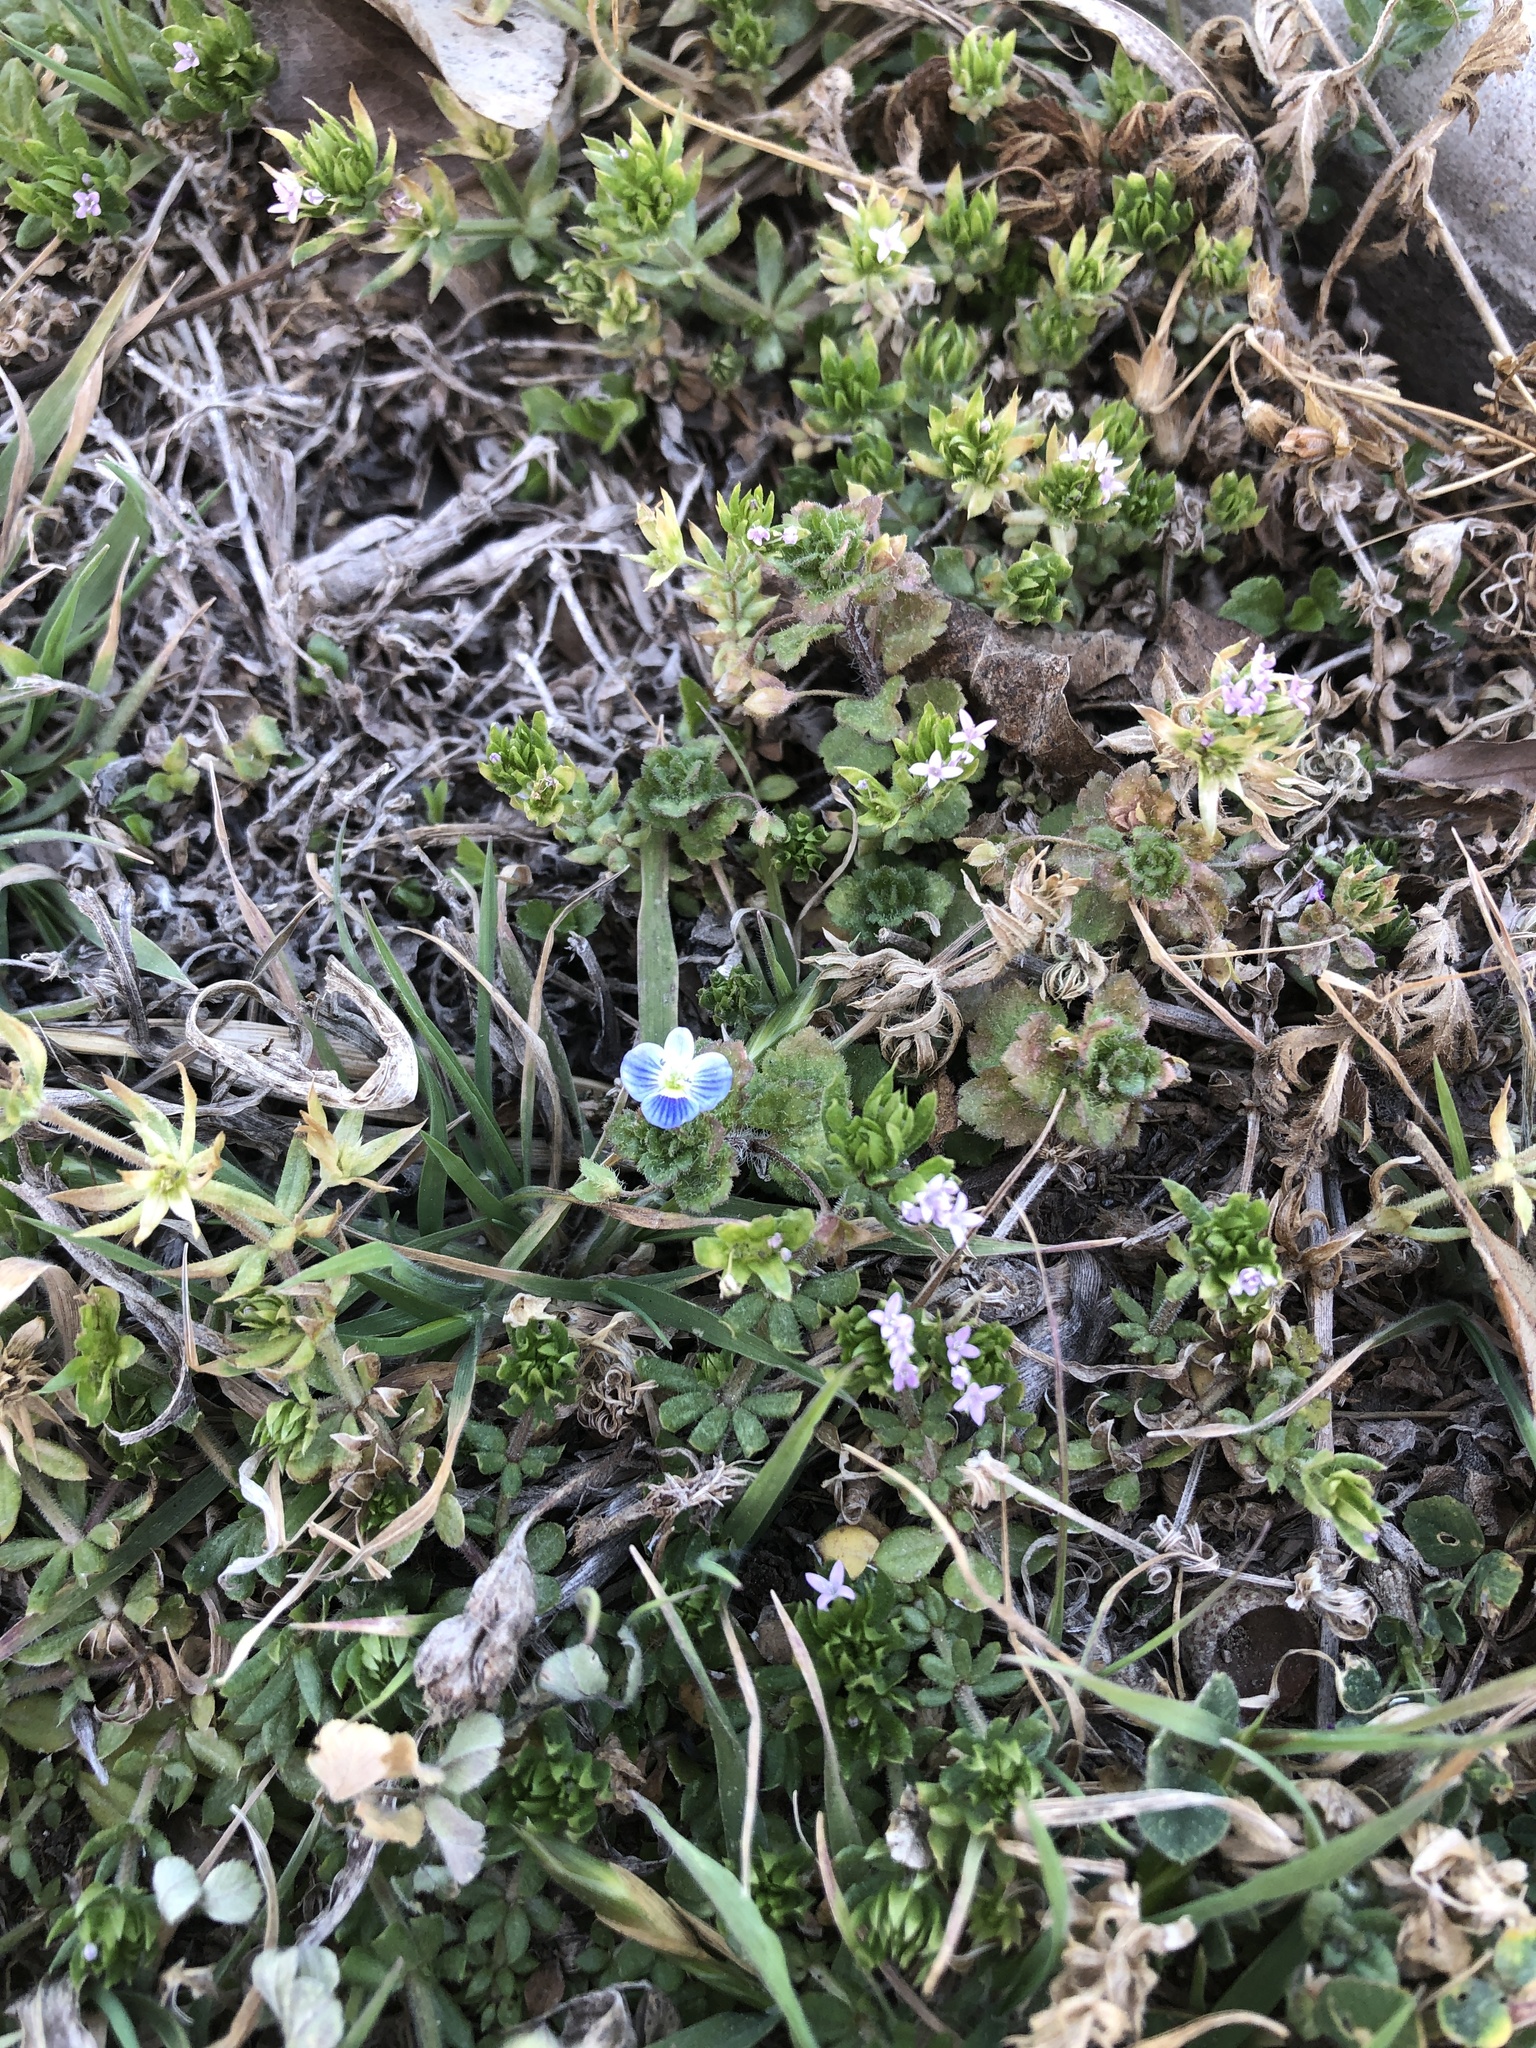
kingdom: Plantae
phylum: Tracheophyta
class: Magnoliopsida
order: Lamiales
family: Plantaginaceae
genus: Veronica
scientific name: Veronica persica
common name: Common field-speedwell
